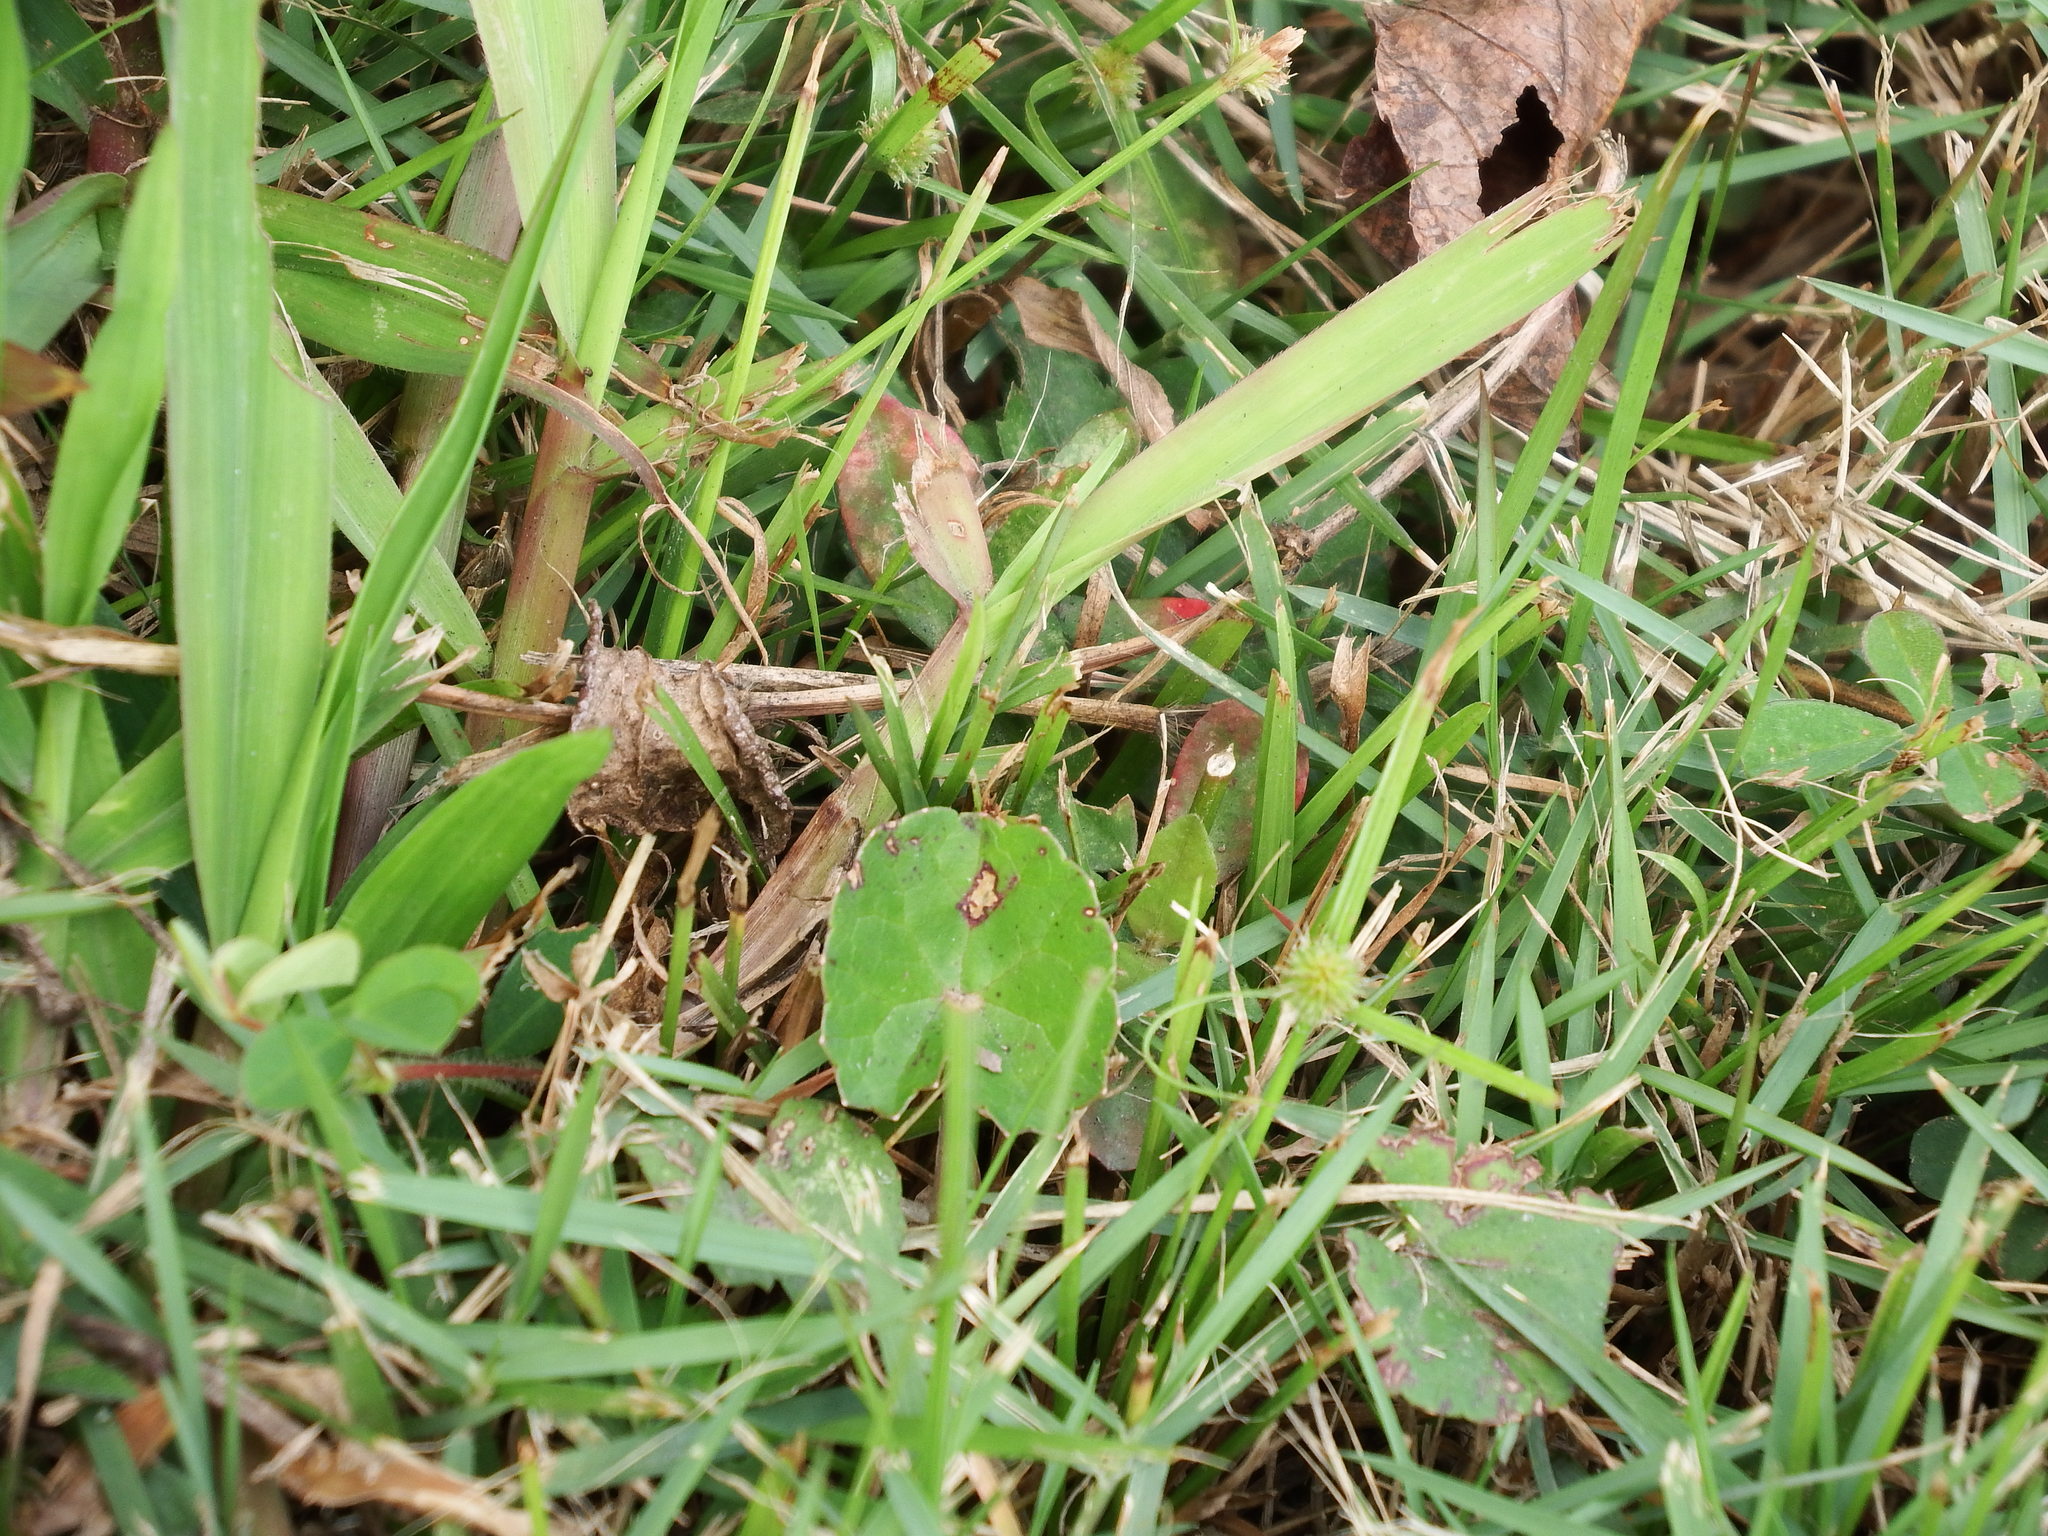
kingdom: Plantae
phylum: Tracheophyta
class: Magnoliopsida
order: Apiales
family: Apiaceae
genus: Centella
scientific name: Centella asiatica
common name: Spadeleaf
